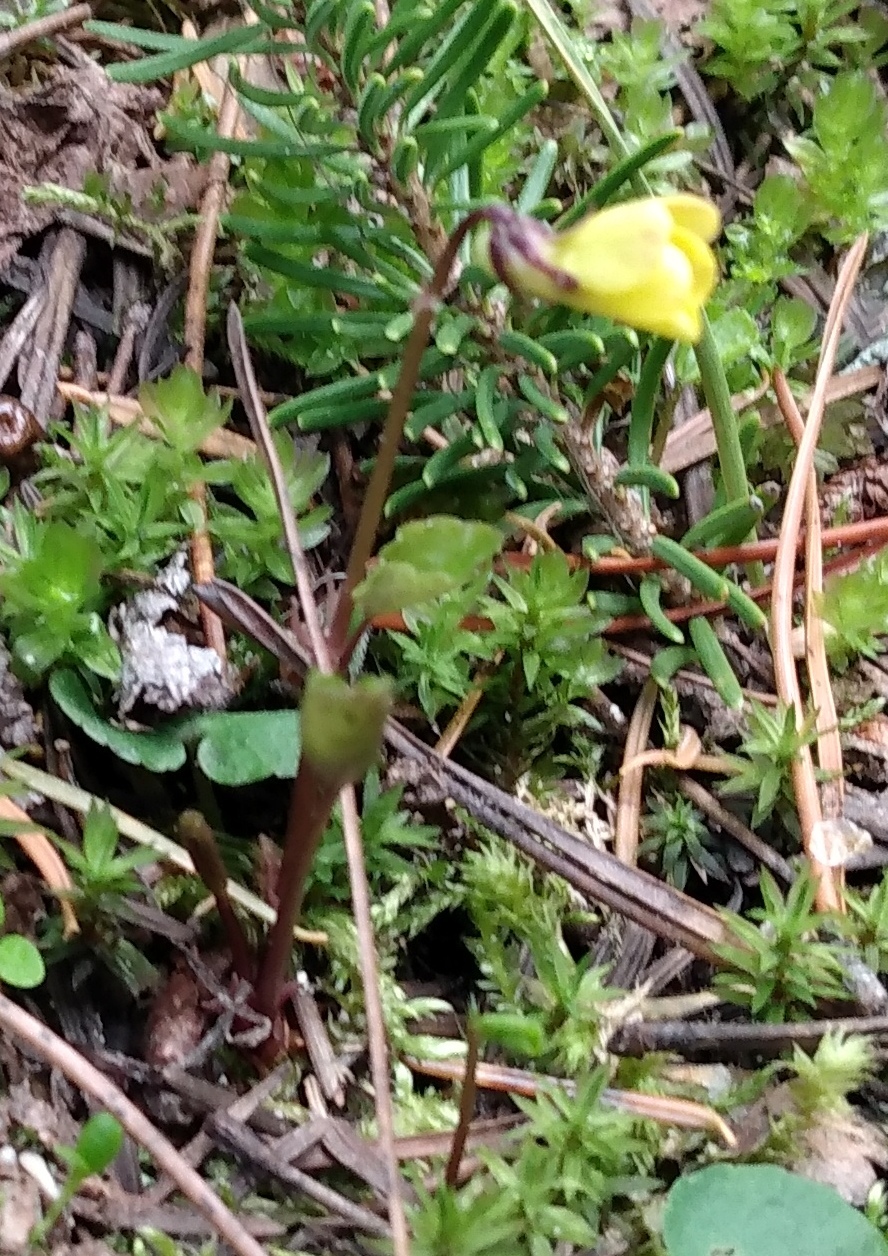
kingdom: Plantae
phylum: Tracheophyta
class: Magnoliopsida
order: Malpighiales
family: Violaceae
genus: Viola
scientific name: Viola orbiculata
